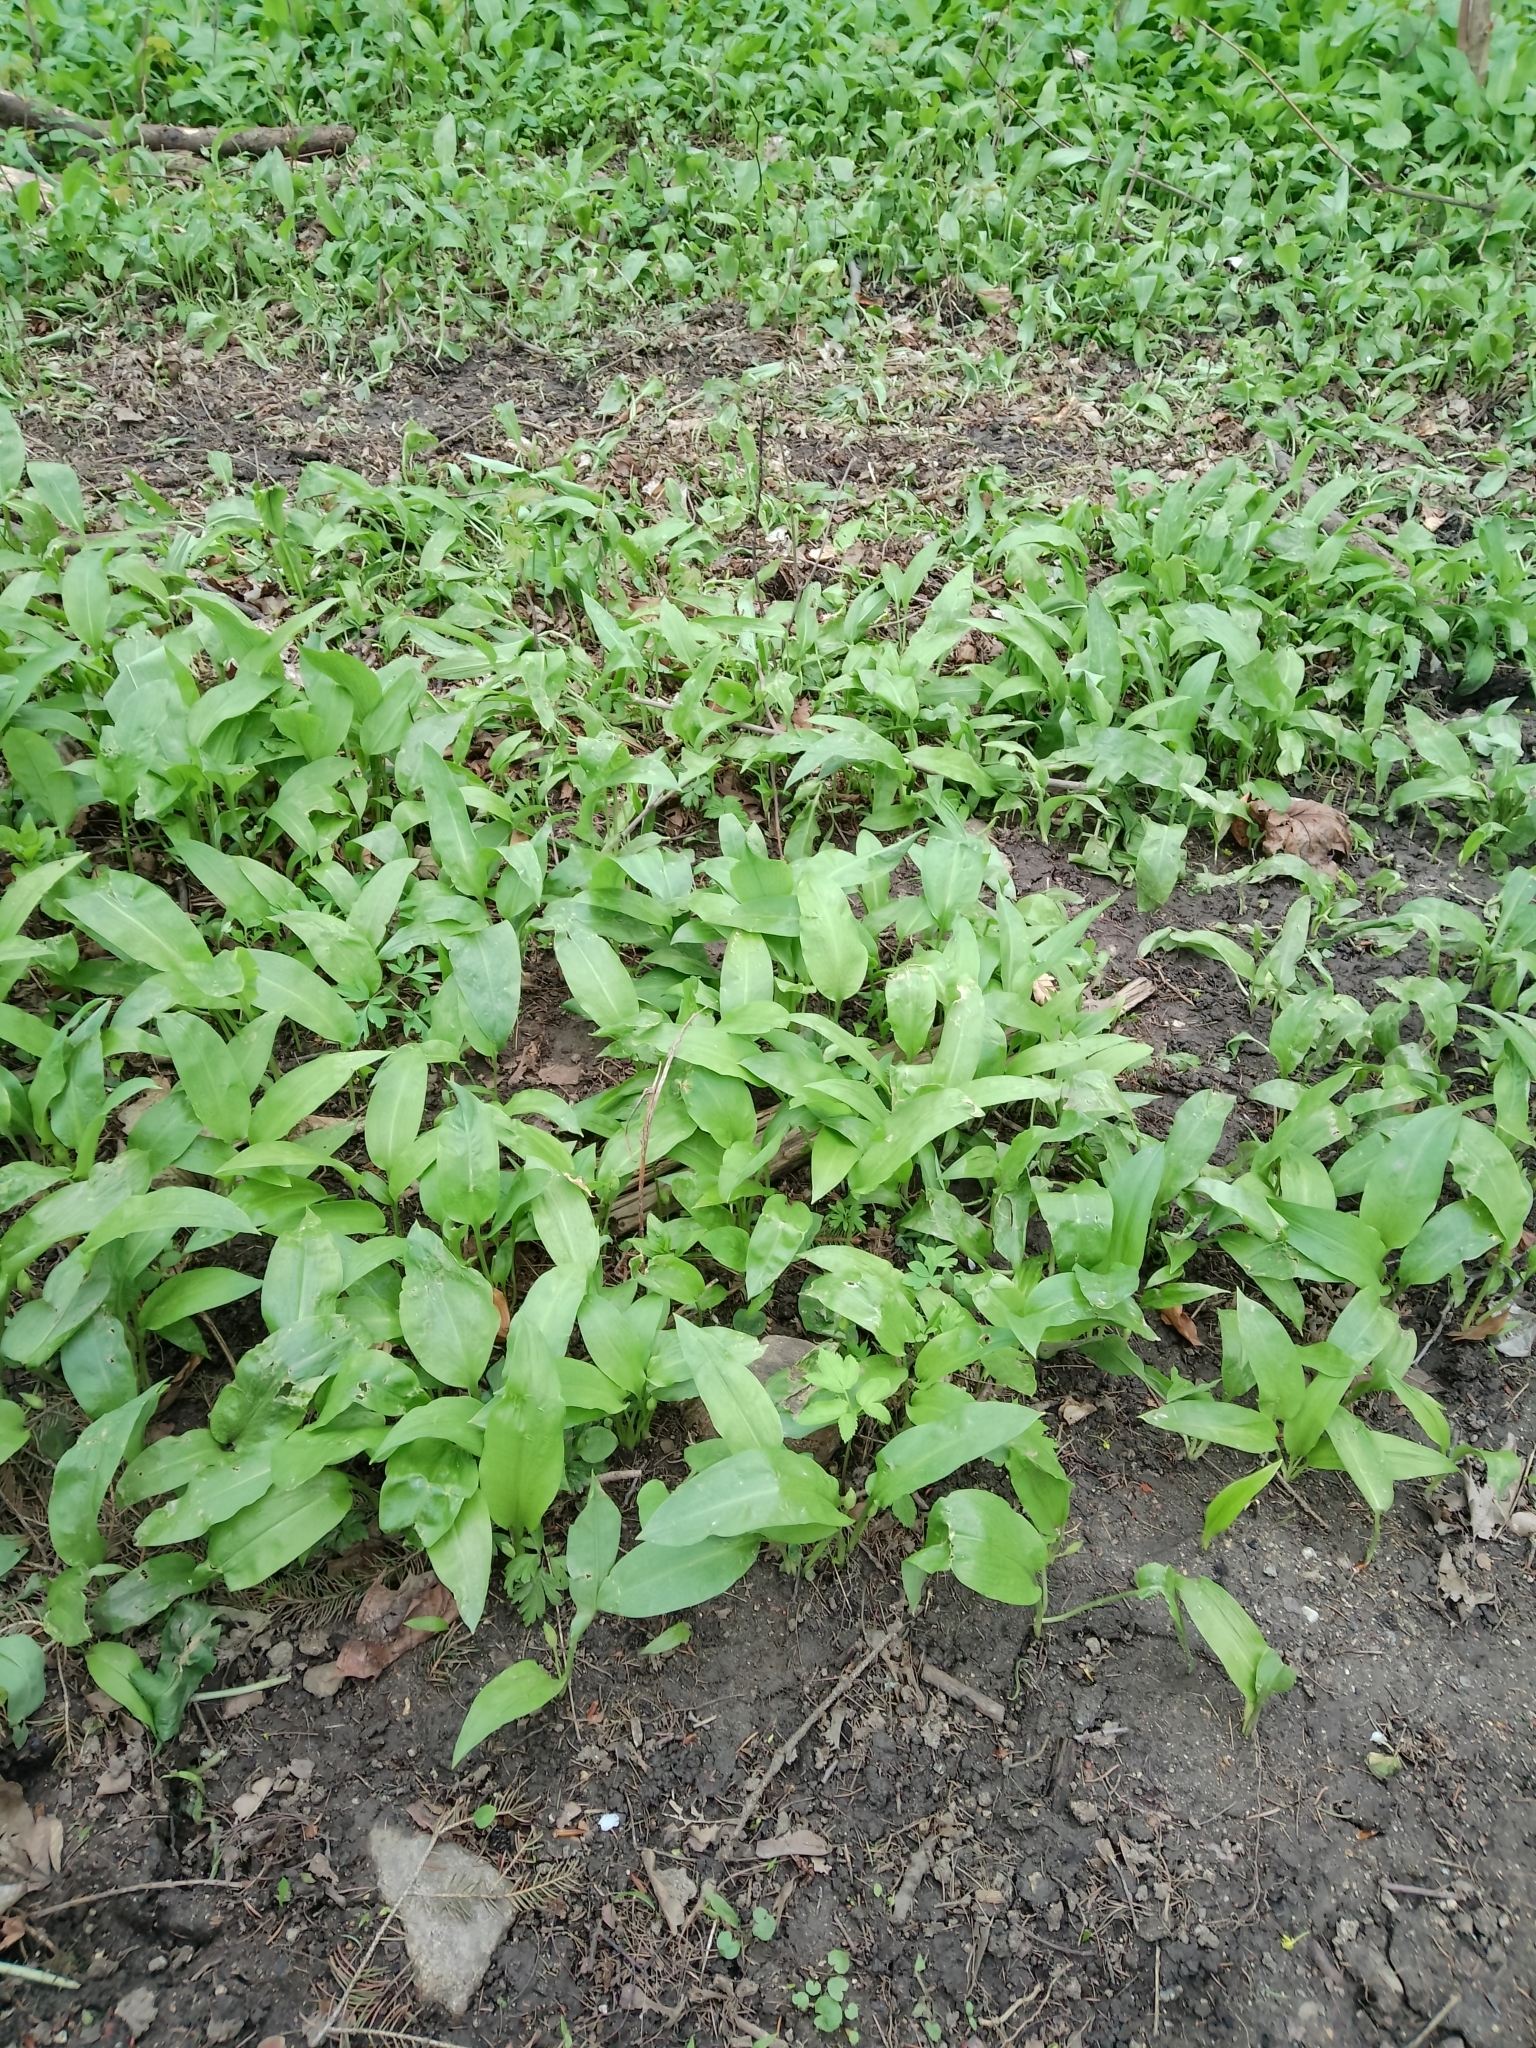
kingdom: Plantae
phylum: Tracheophyta
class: Liliopsida
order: Asparagales
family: Amaryllidaceae
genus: Allium
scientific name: Allium ursinum
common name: Ramsons
